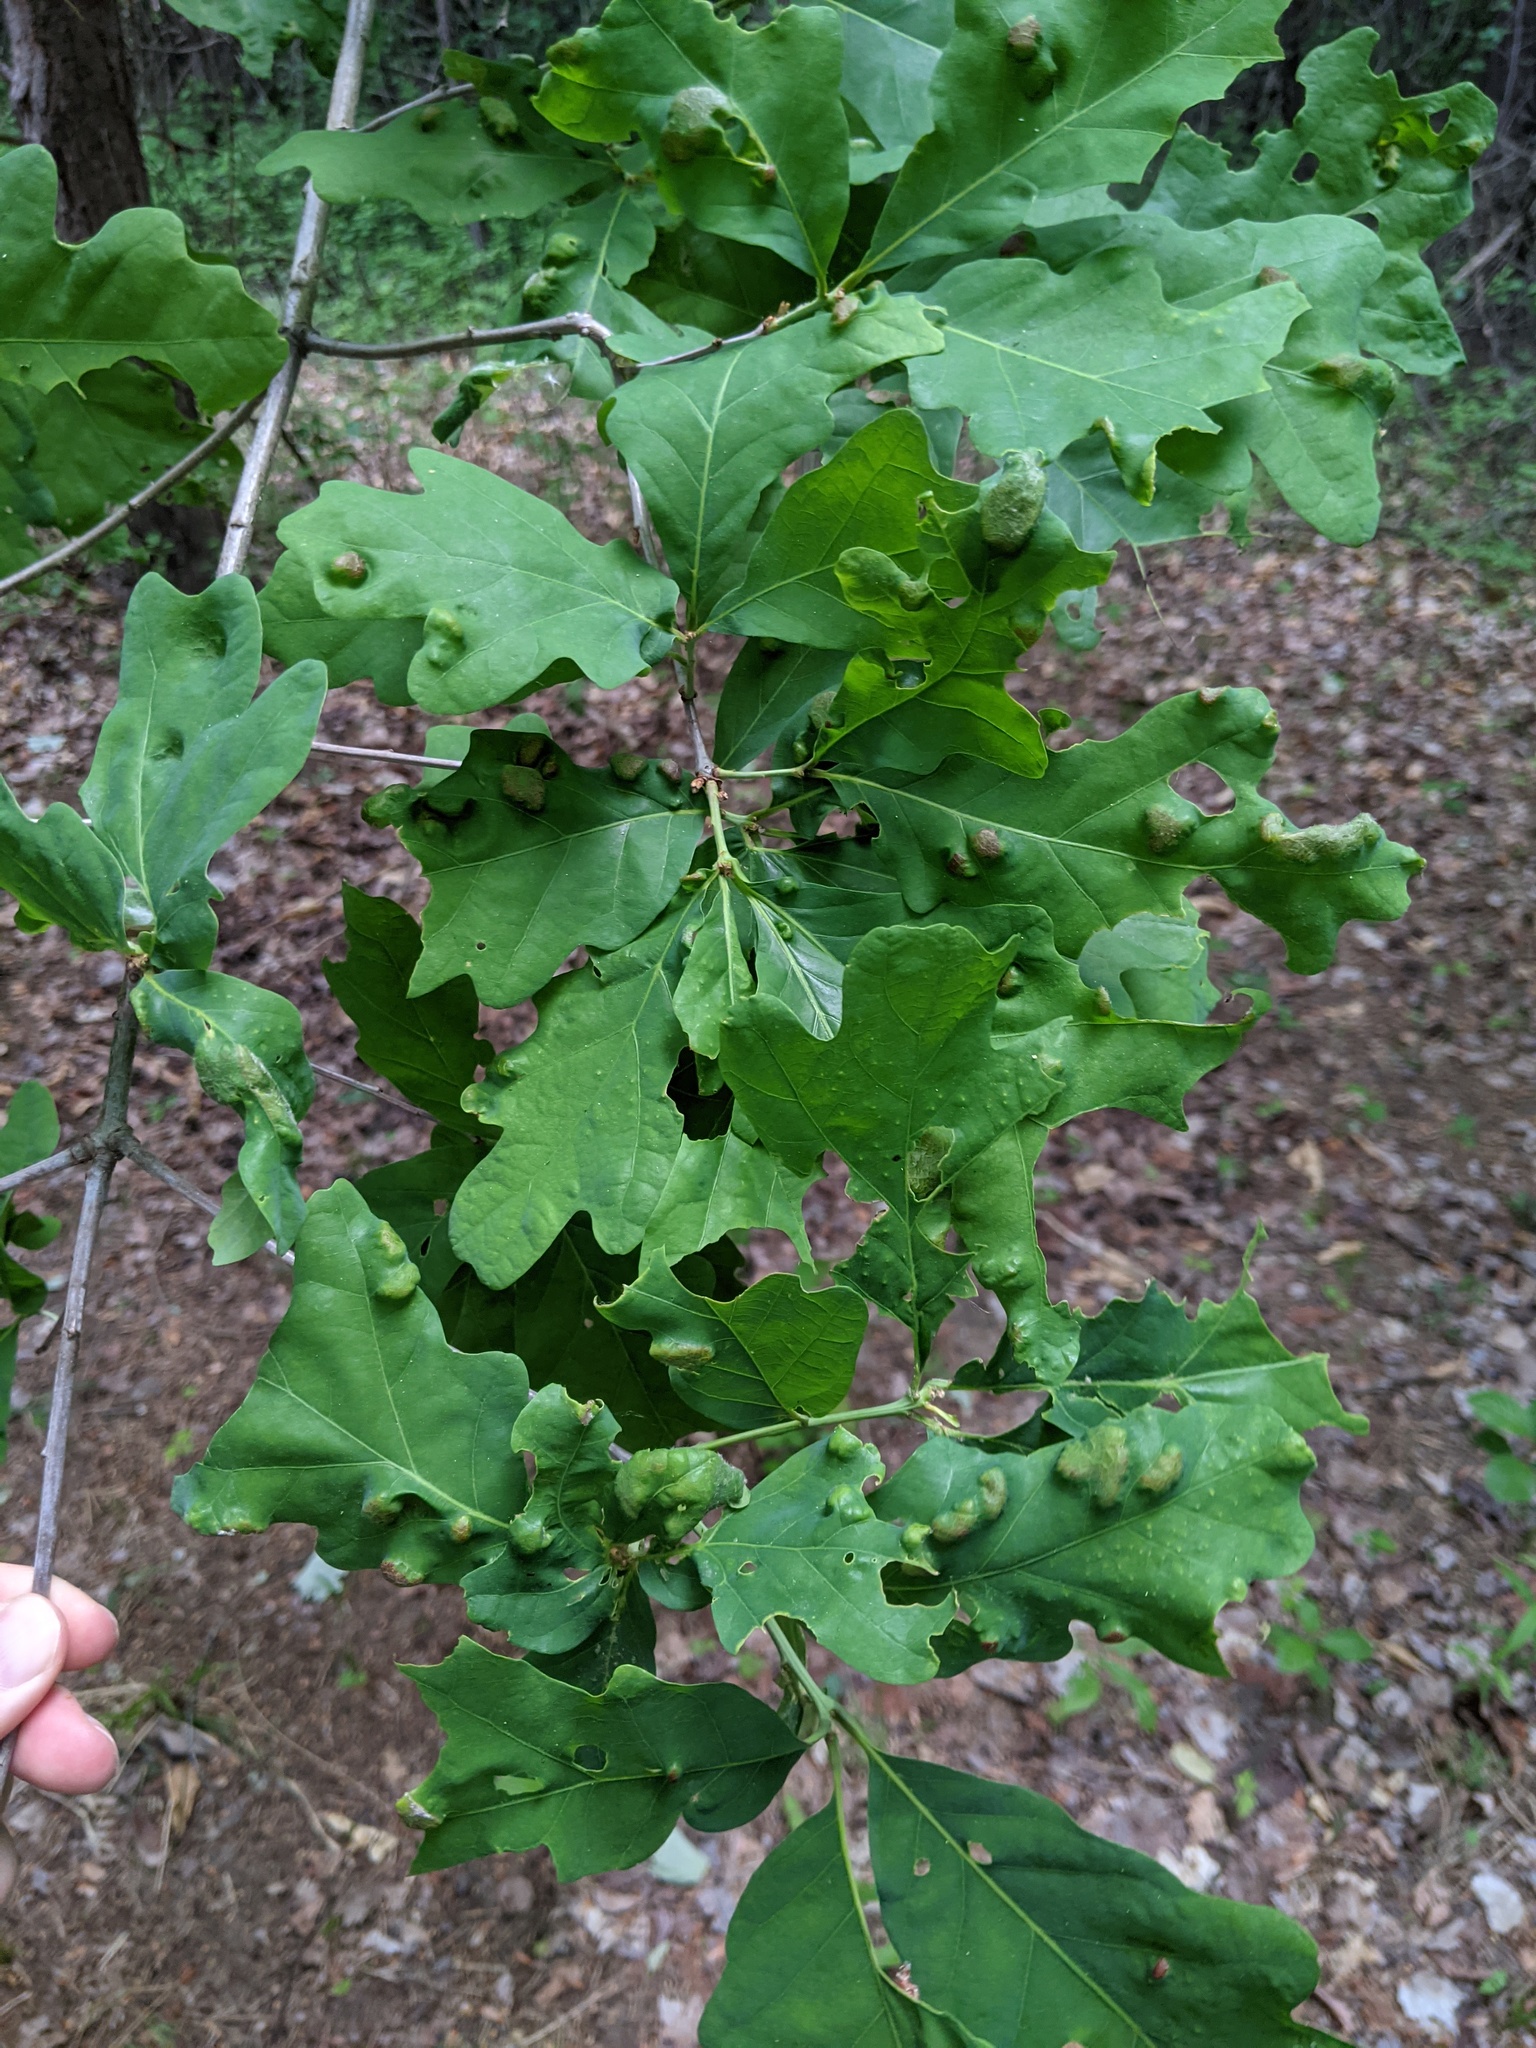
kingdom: Animalia
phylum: Arthropoda
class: Arachnida
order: Trombidiformes
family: Eriophyidae
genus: Aceria
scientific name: Aceria
